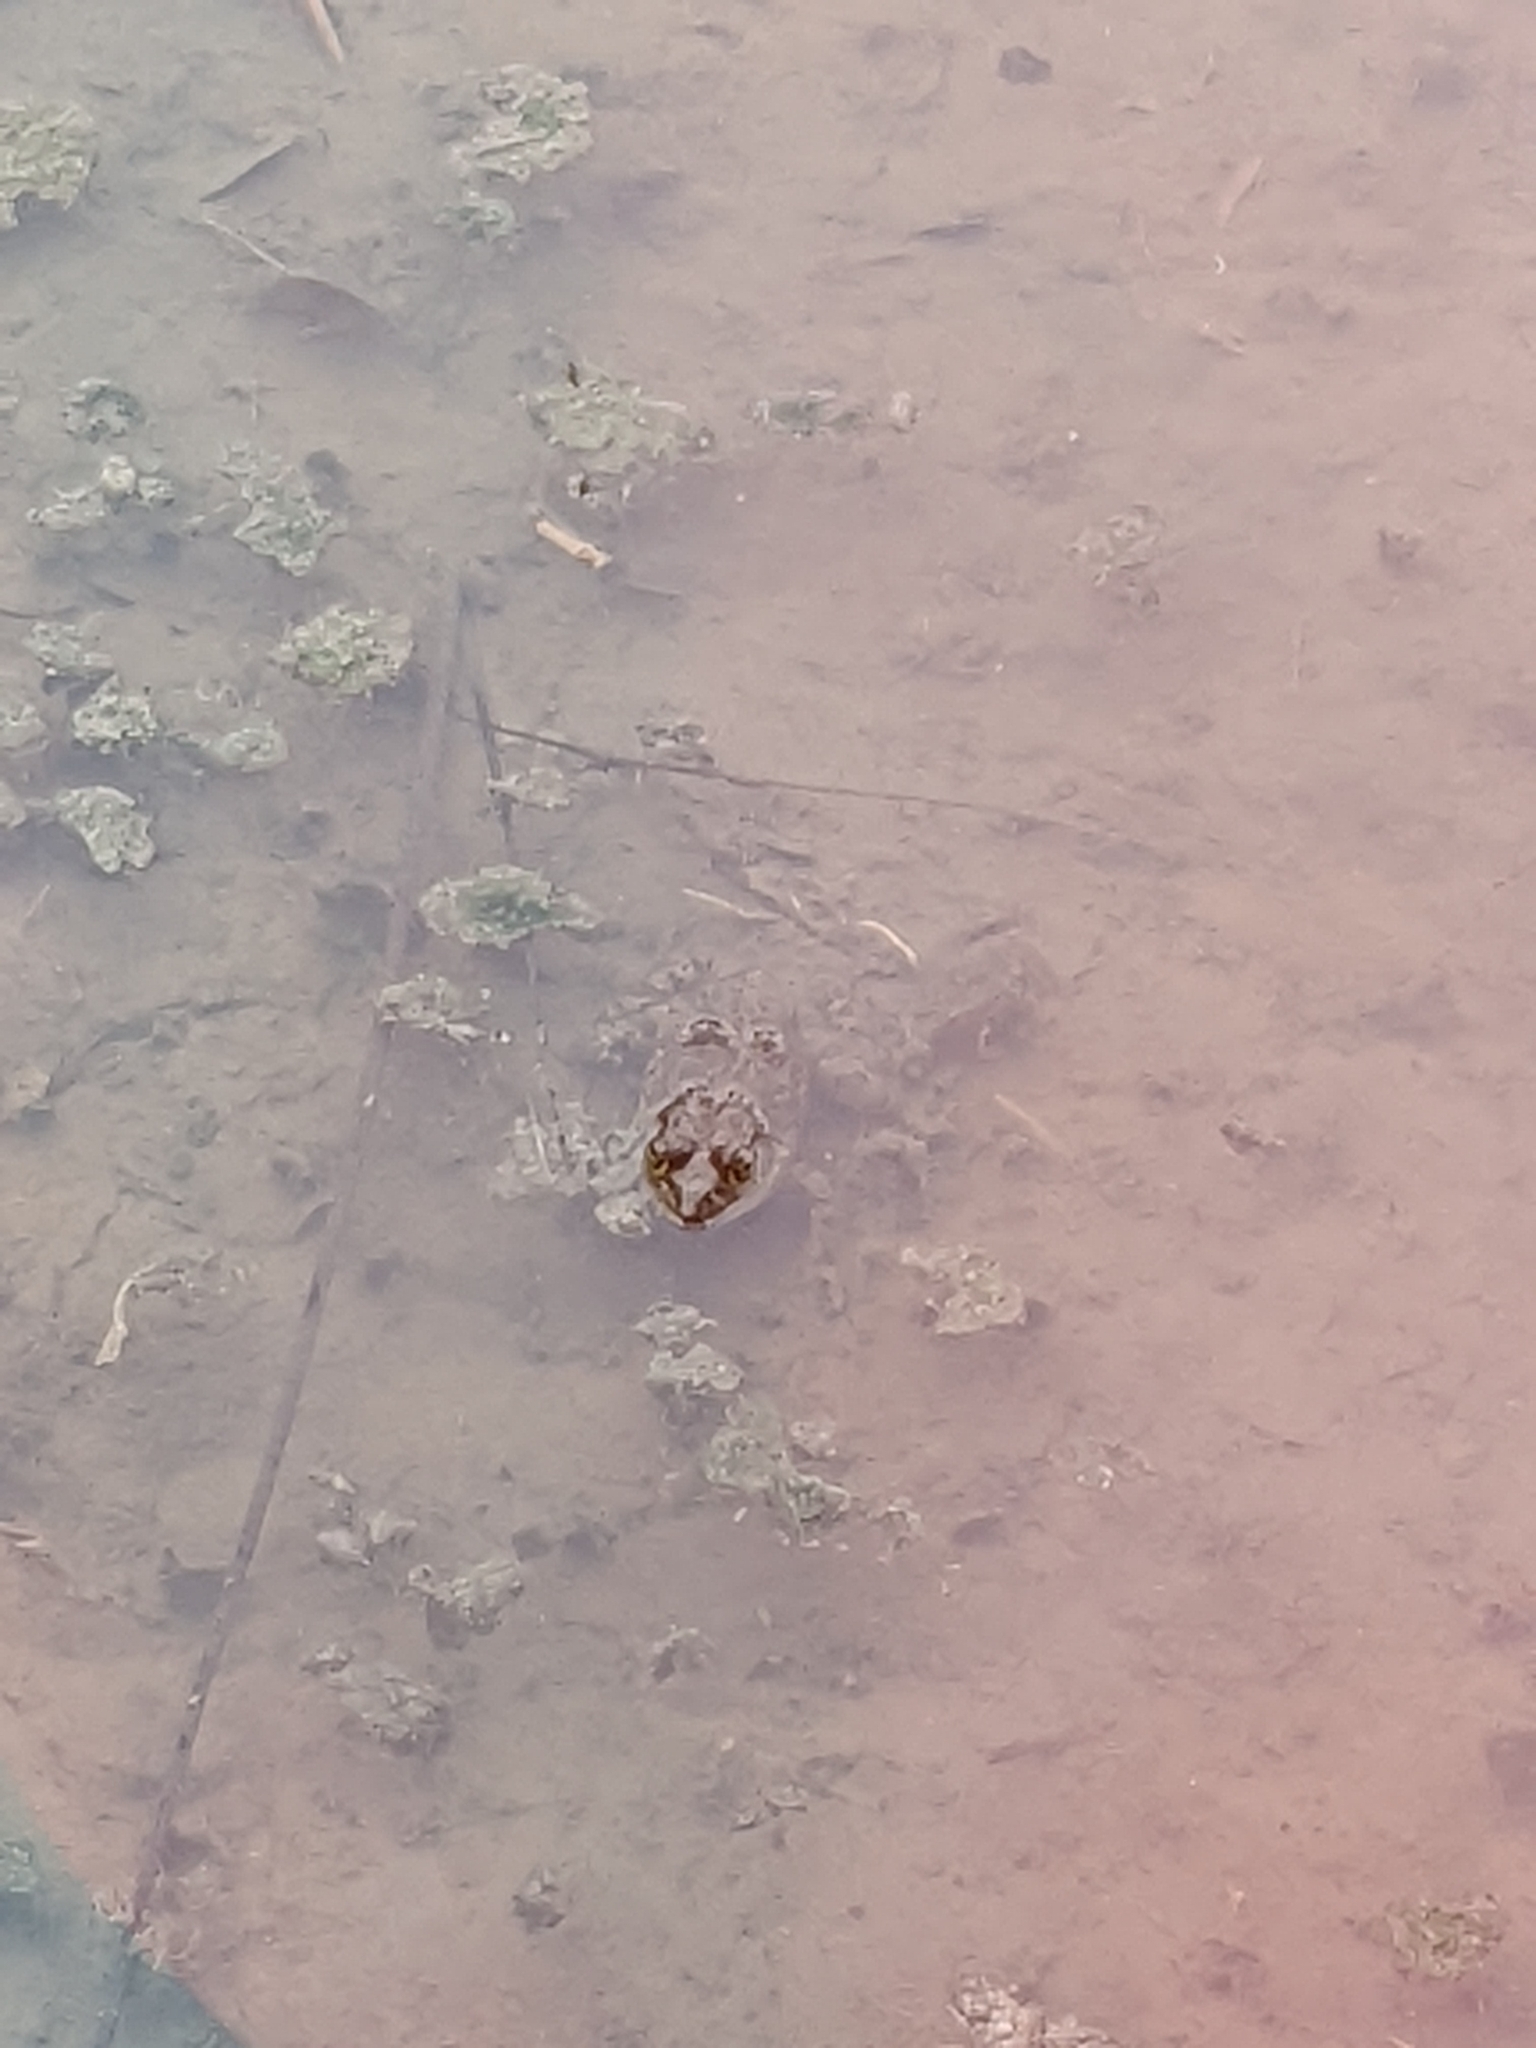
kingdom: Animalia
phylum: Chordata
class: Amphibia
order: Anura
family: Ranidae
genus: Lithobates
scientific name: Lithobates catesbeianus
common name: American bullfrog
